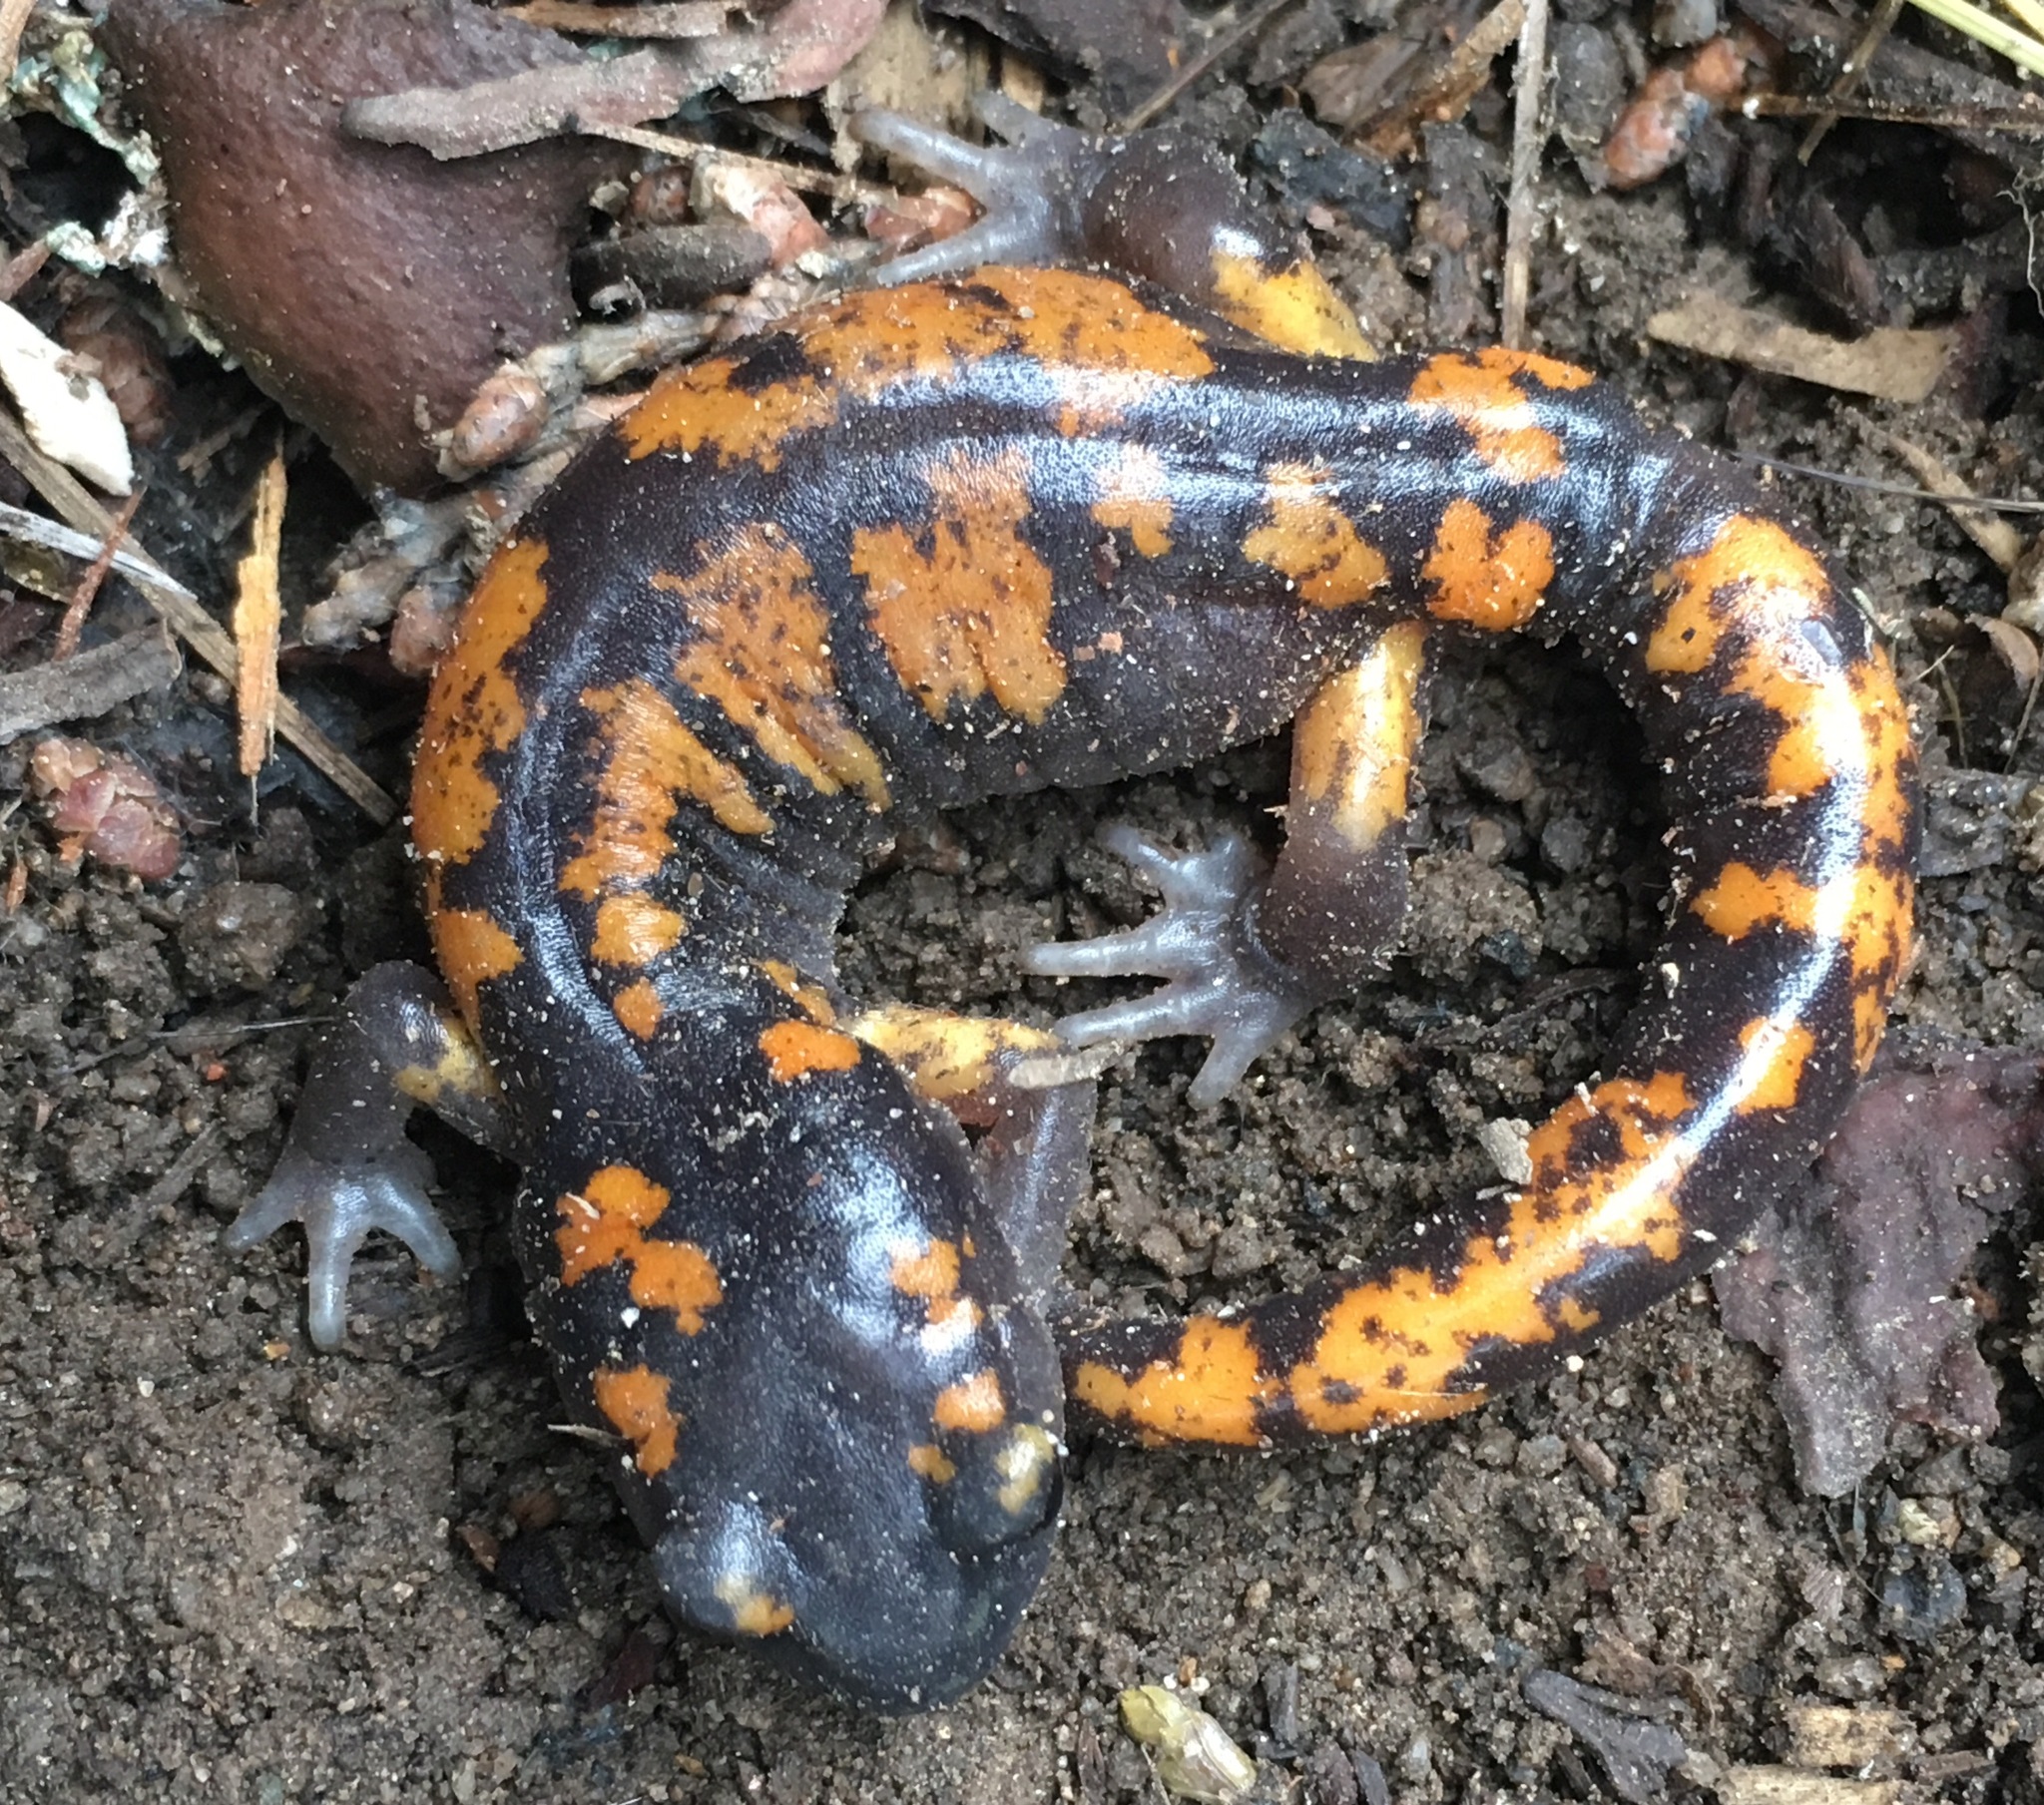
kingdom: Animalia
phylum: Chordata
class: Amphibia
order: Caudata
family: Plethodontidae
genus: Ensatina
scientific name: Ensatina eschscholtzii
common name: Ensatina
